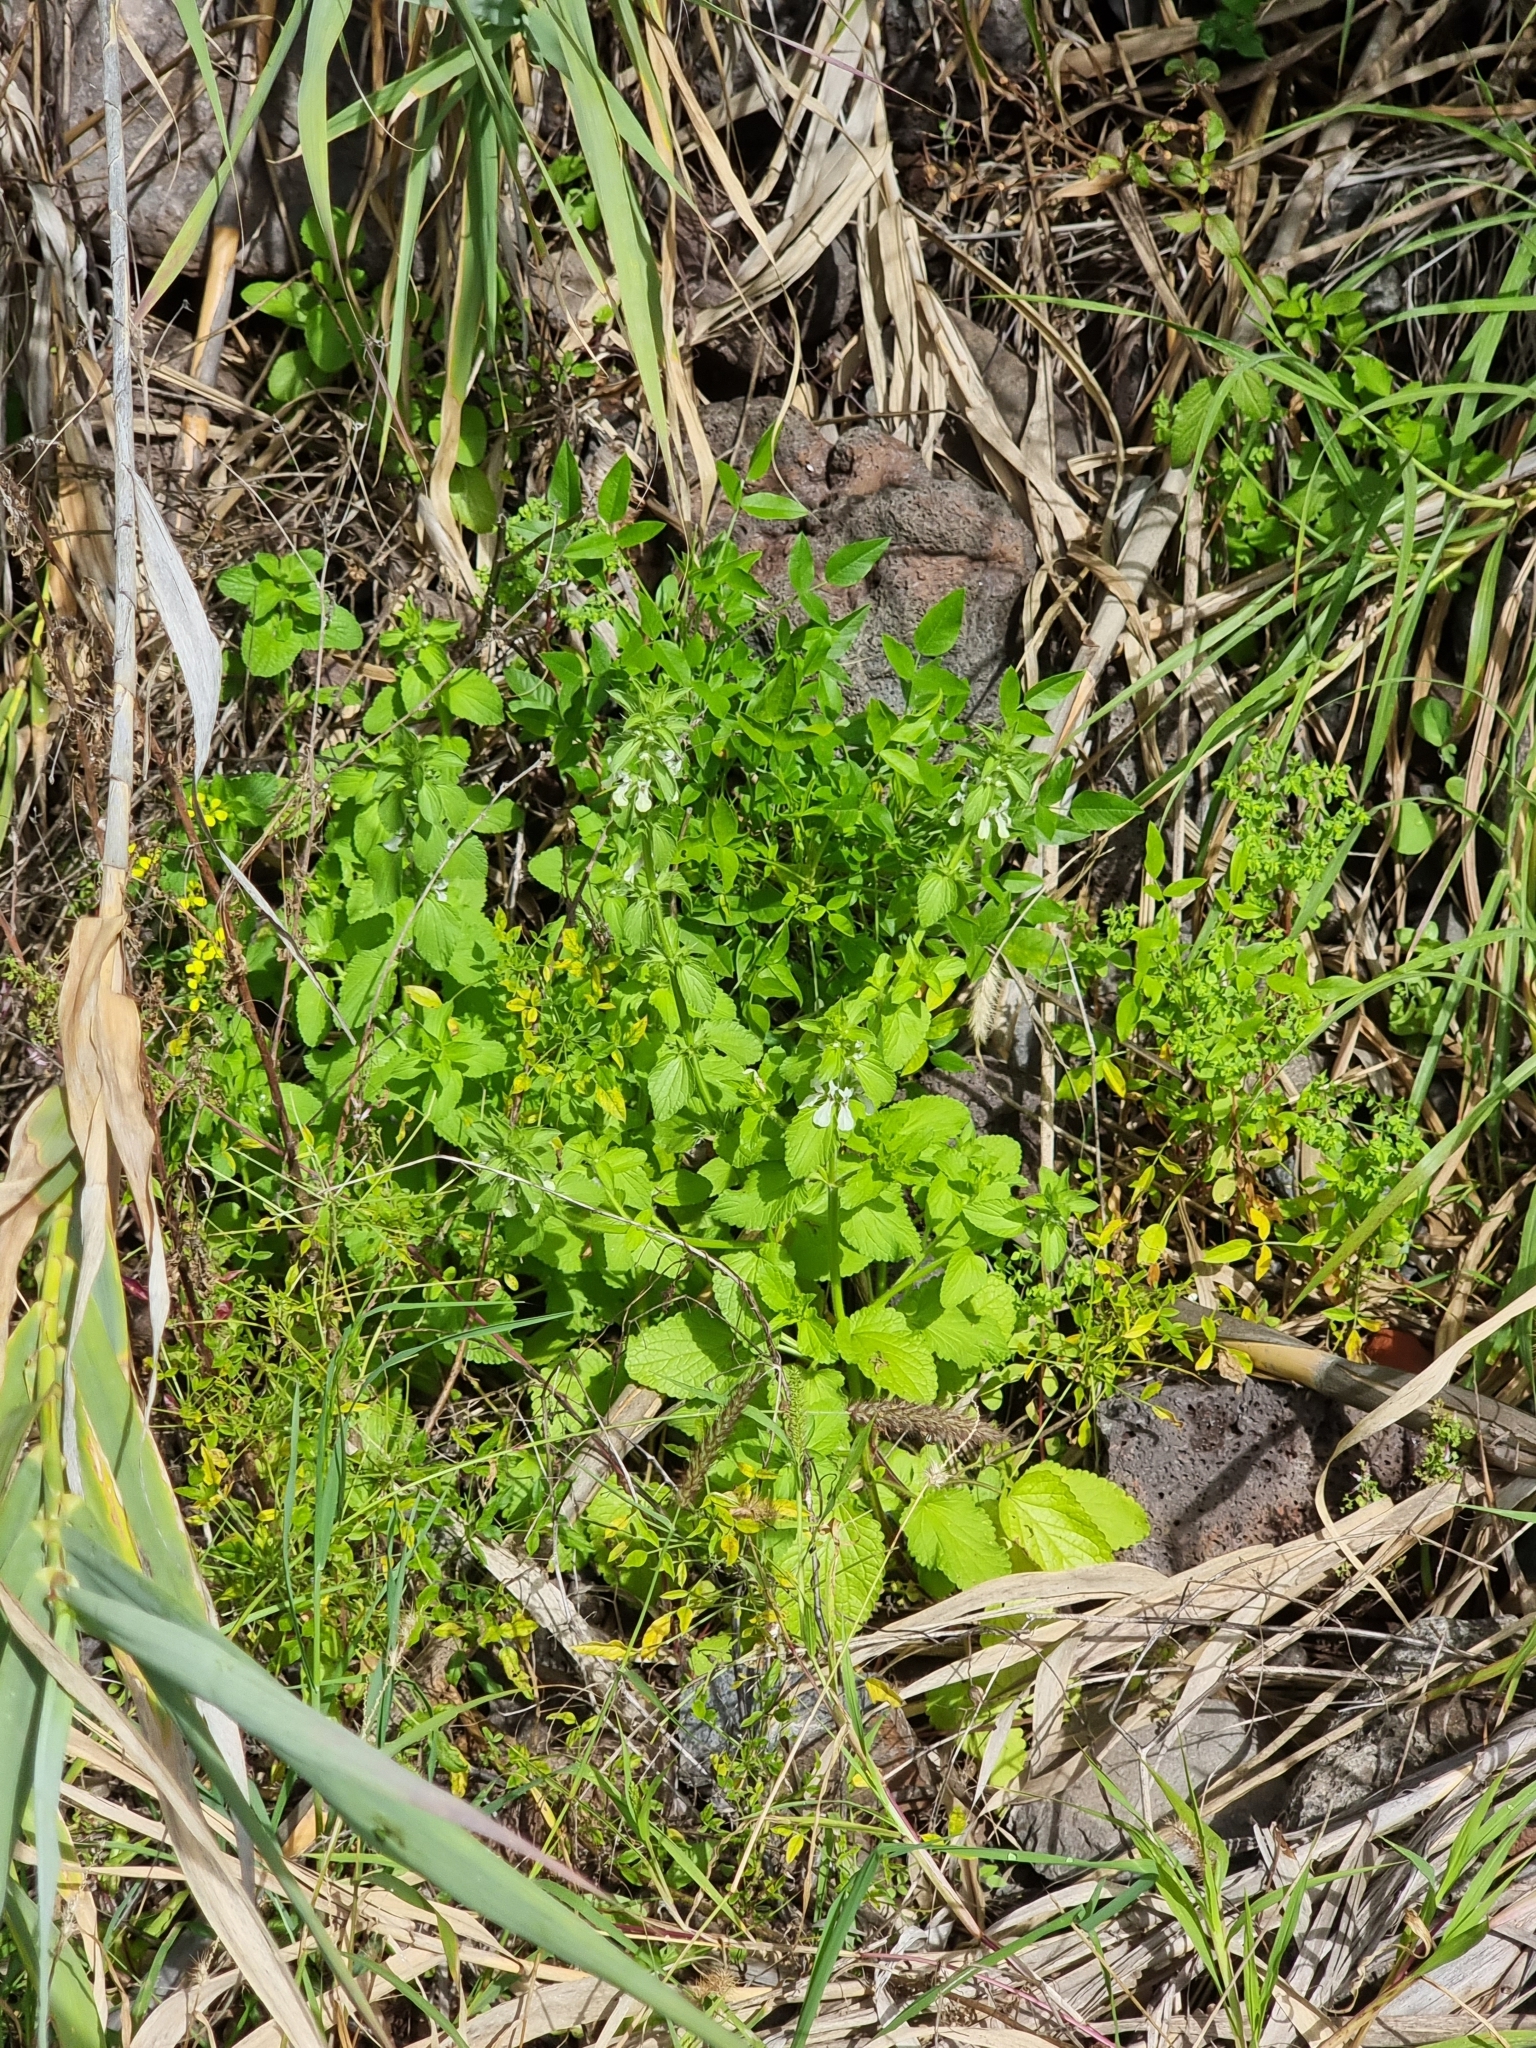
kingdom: Plantae
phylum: Tracheophyta
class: Magnoliopsida
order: Lamiales
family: Lamiaceae
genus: Stachys
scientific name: Stachys ocymastrum
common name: Italian hedgenettle
